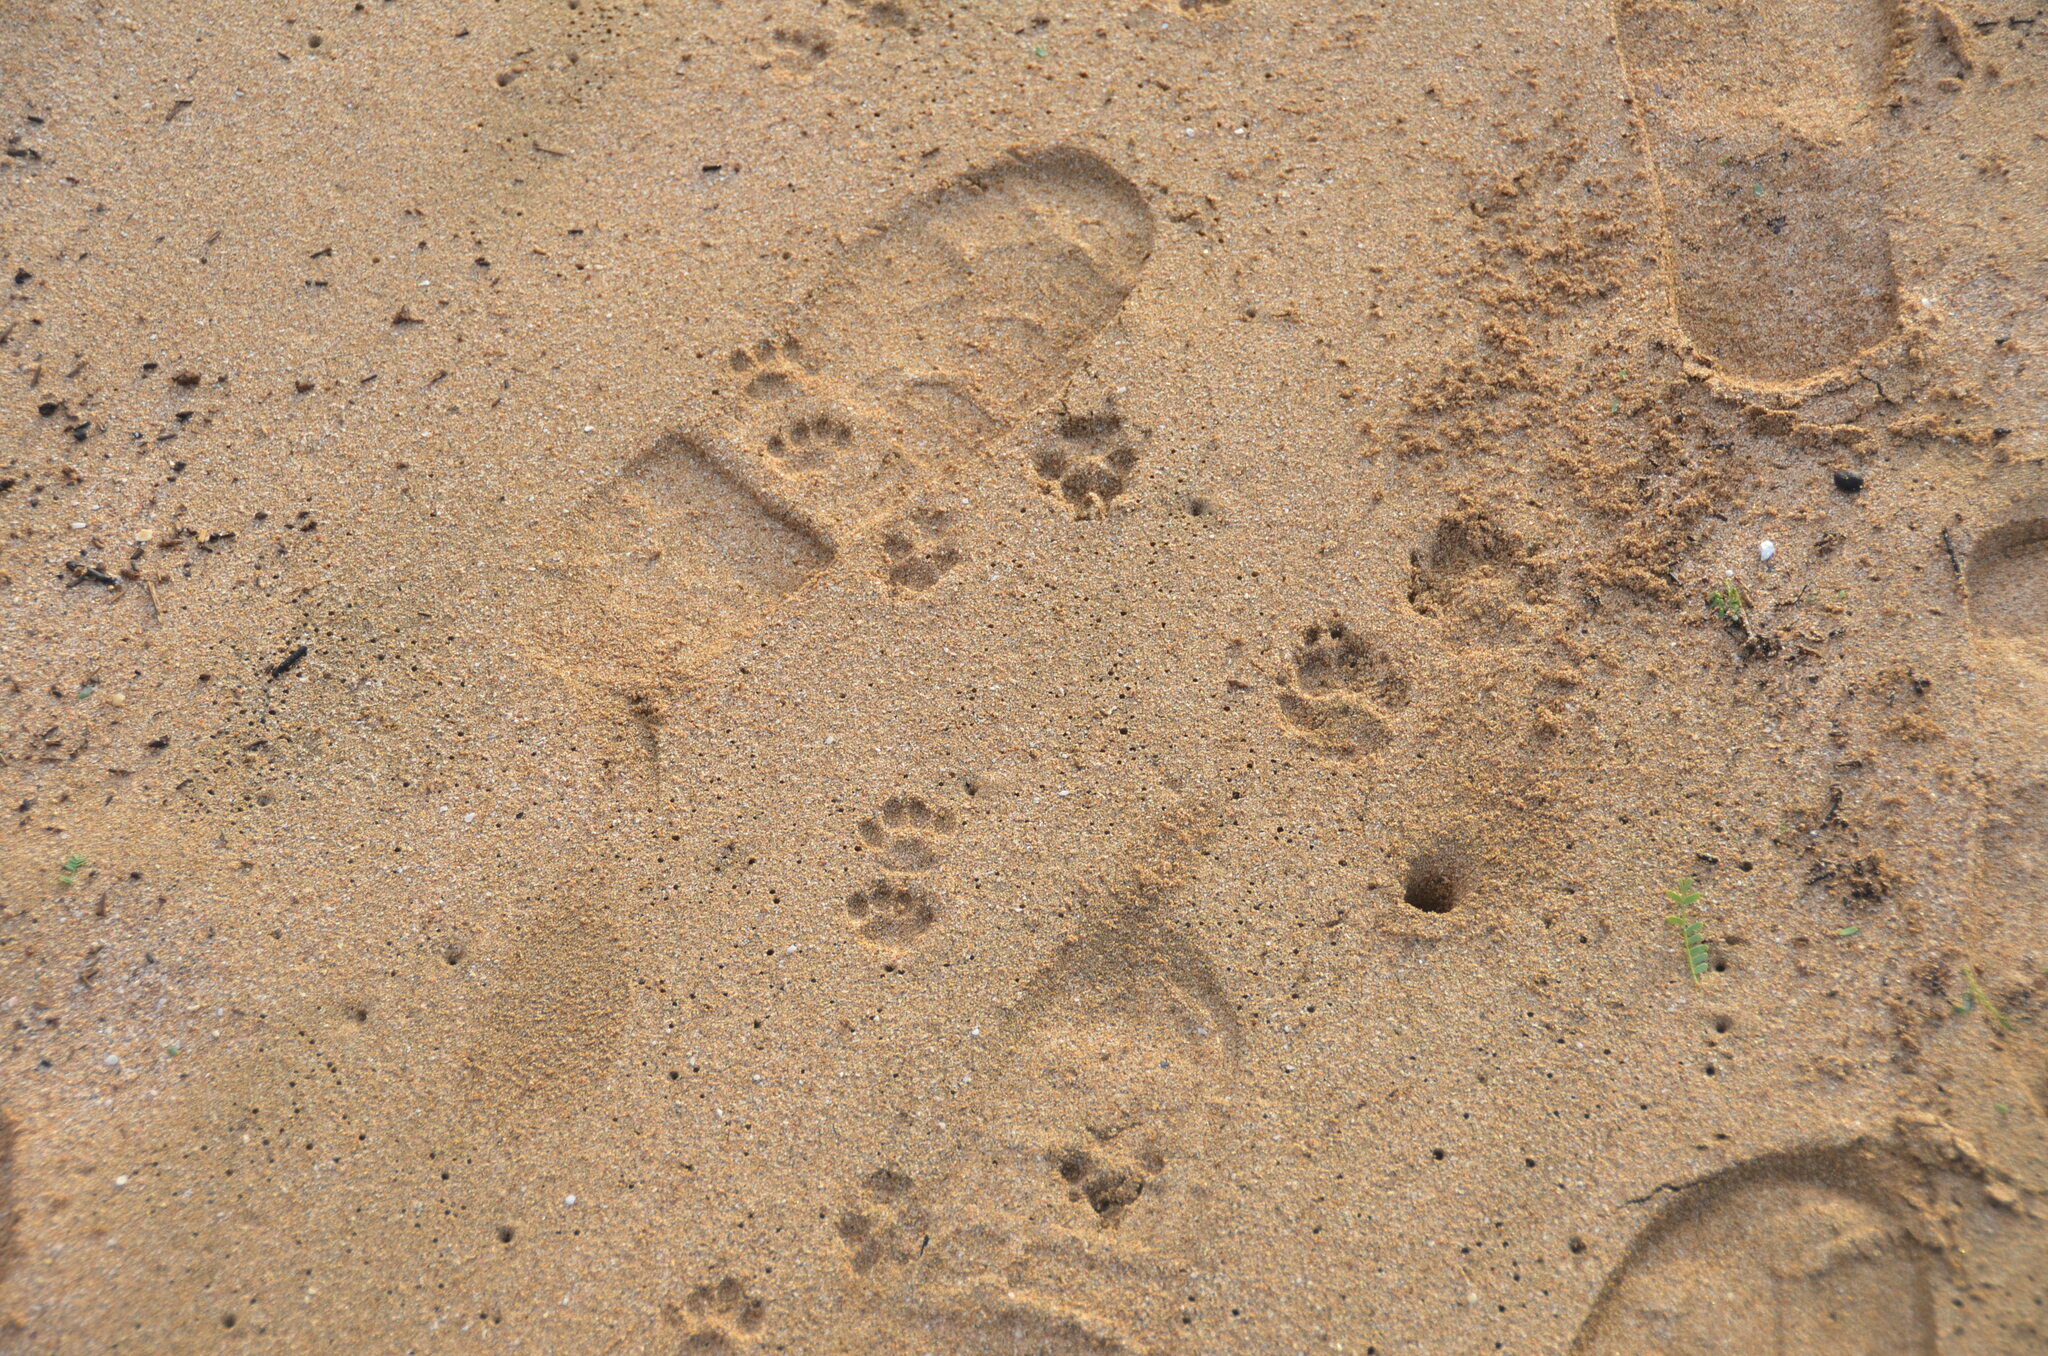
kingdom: Animalia
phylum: Chordata
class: Mammalia
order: Carnivora
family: Herpestidae
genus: Herpestes
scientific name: Herpestes javanicus
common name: Small asian mongoose
